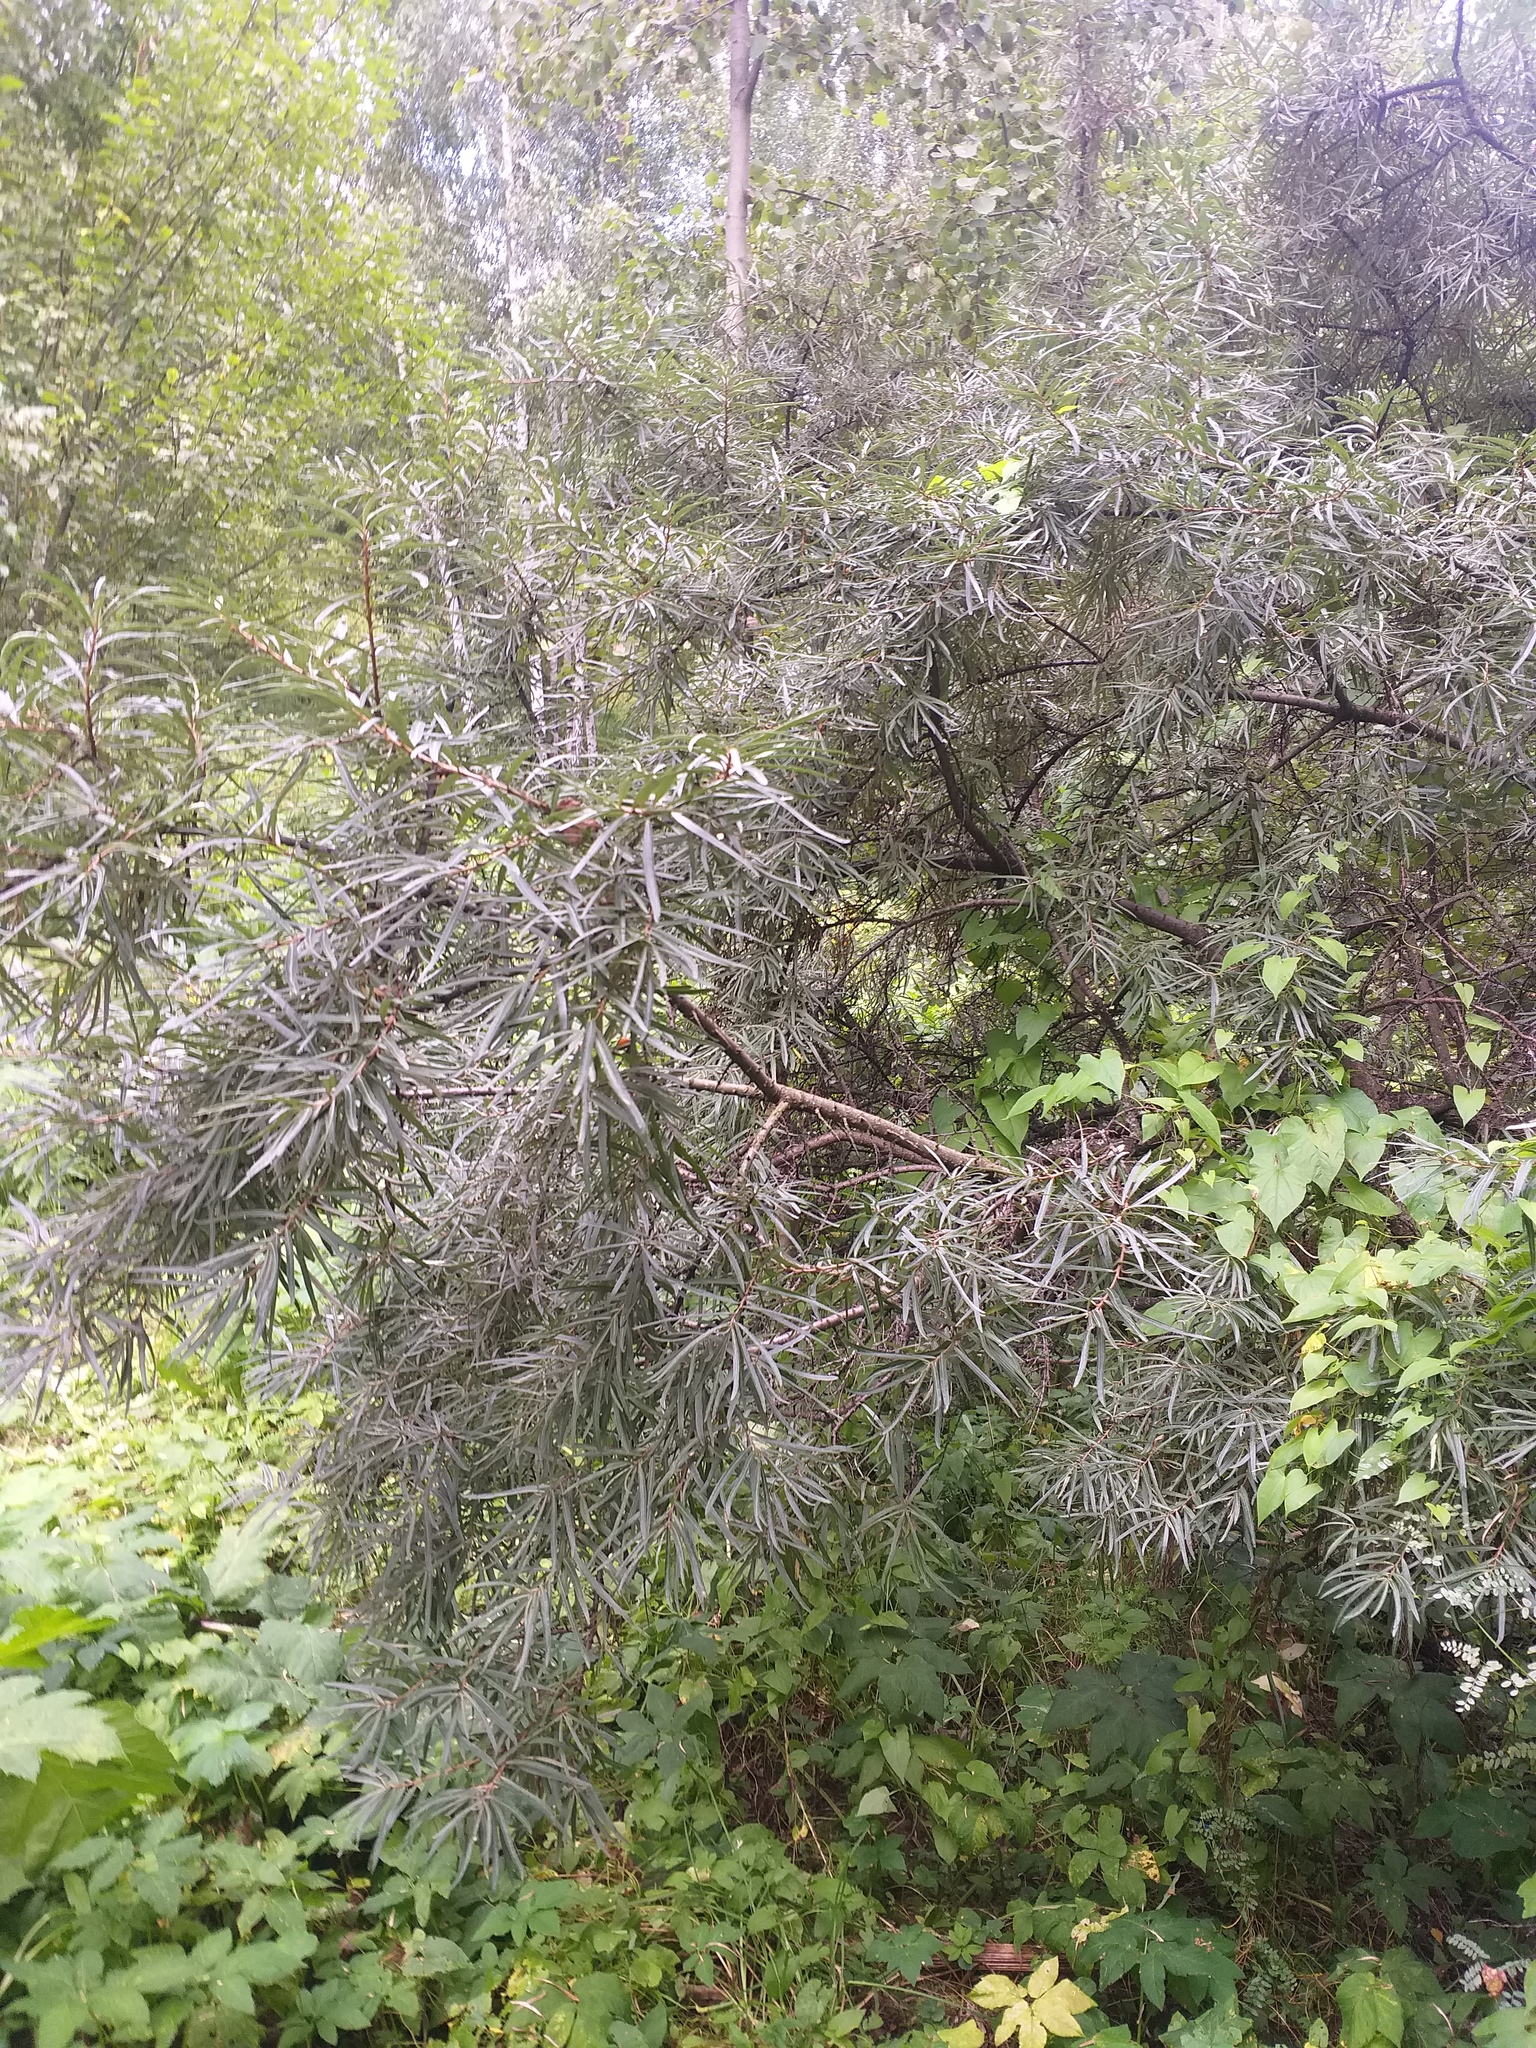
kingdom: Plantae
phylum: Tracheophyta
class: Magnoliopsida
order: Rosales
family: Elaeagnaceae
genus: Hippophae
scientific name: Hippophae rhamnoides
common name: Sea-buckthorn
